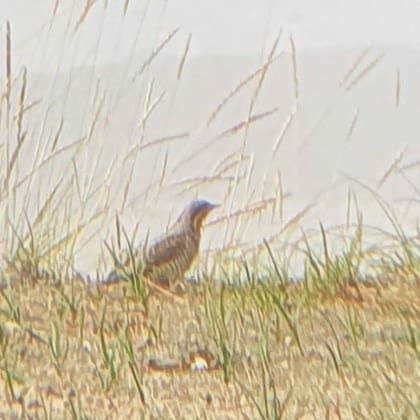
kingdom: Animalia
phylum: Chordata
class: Aves
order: Piciformes
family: Picidae
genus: Jynx
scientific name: Jynx torquilla
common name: Eurasian wryneck
